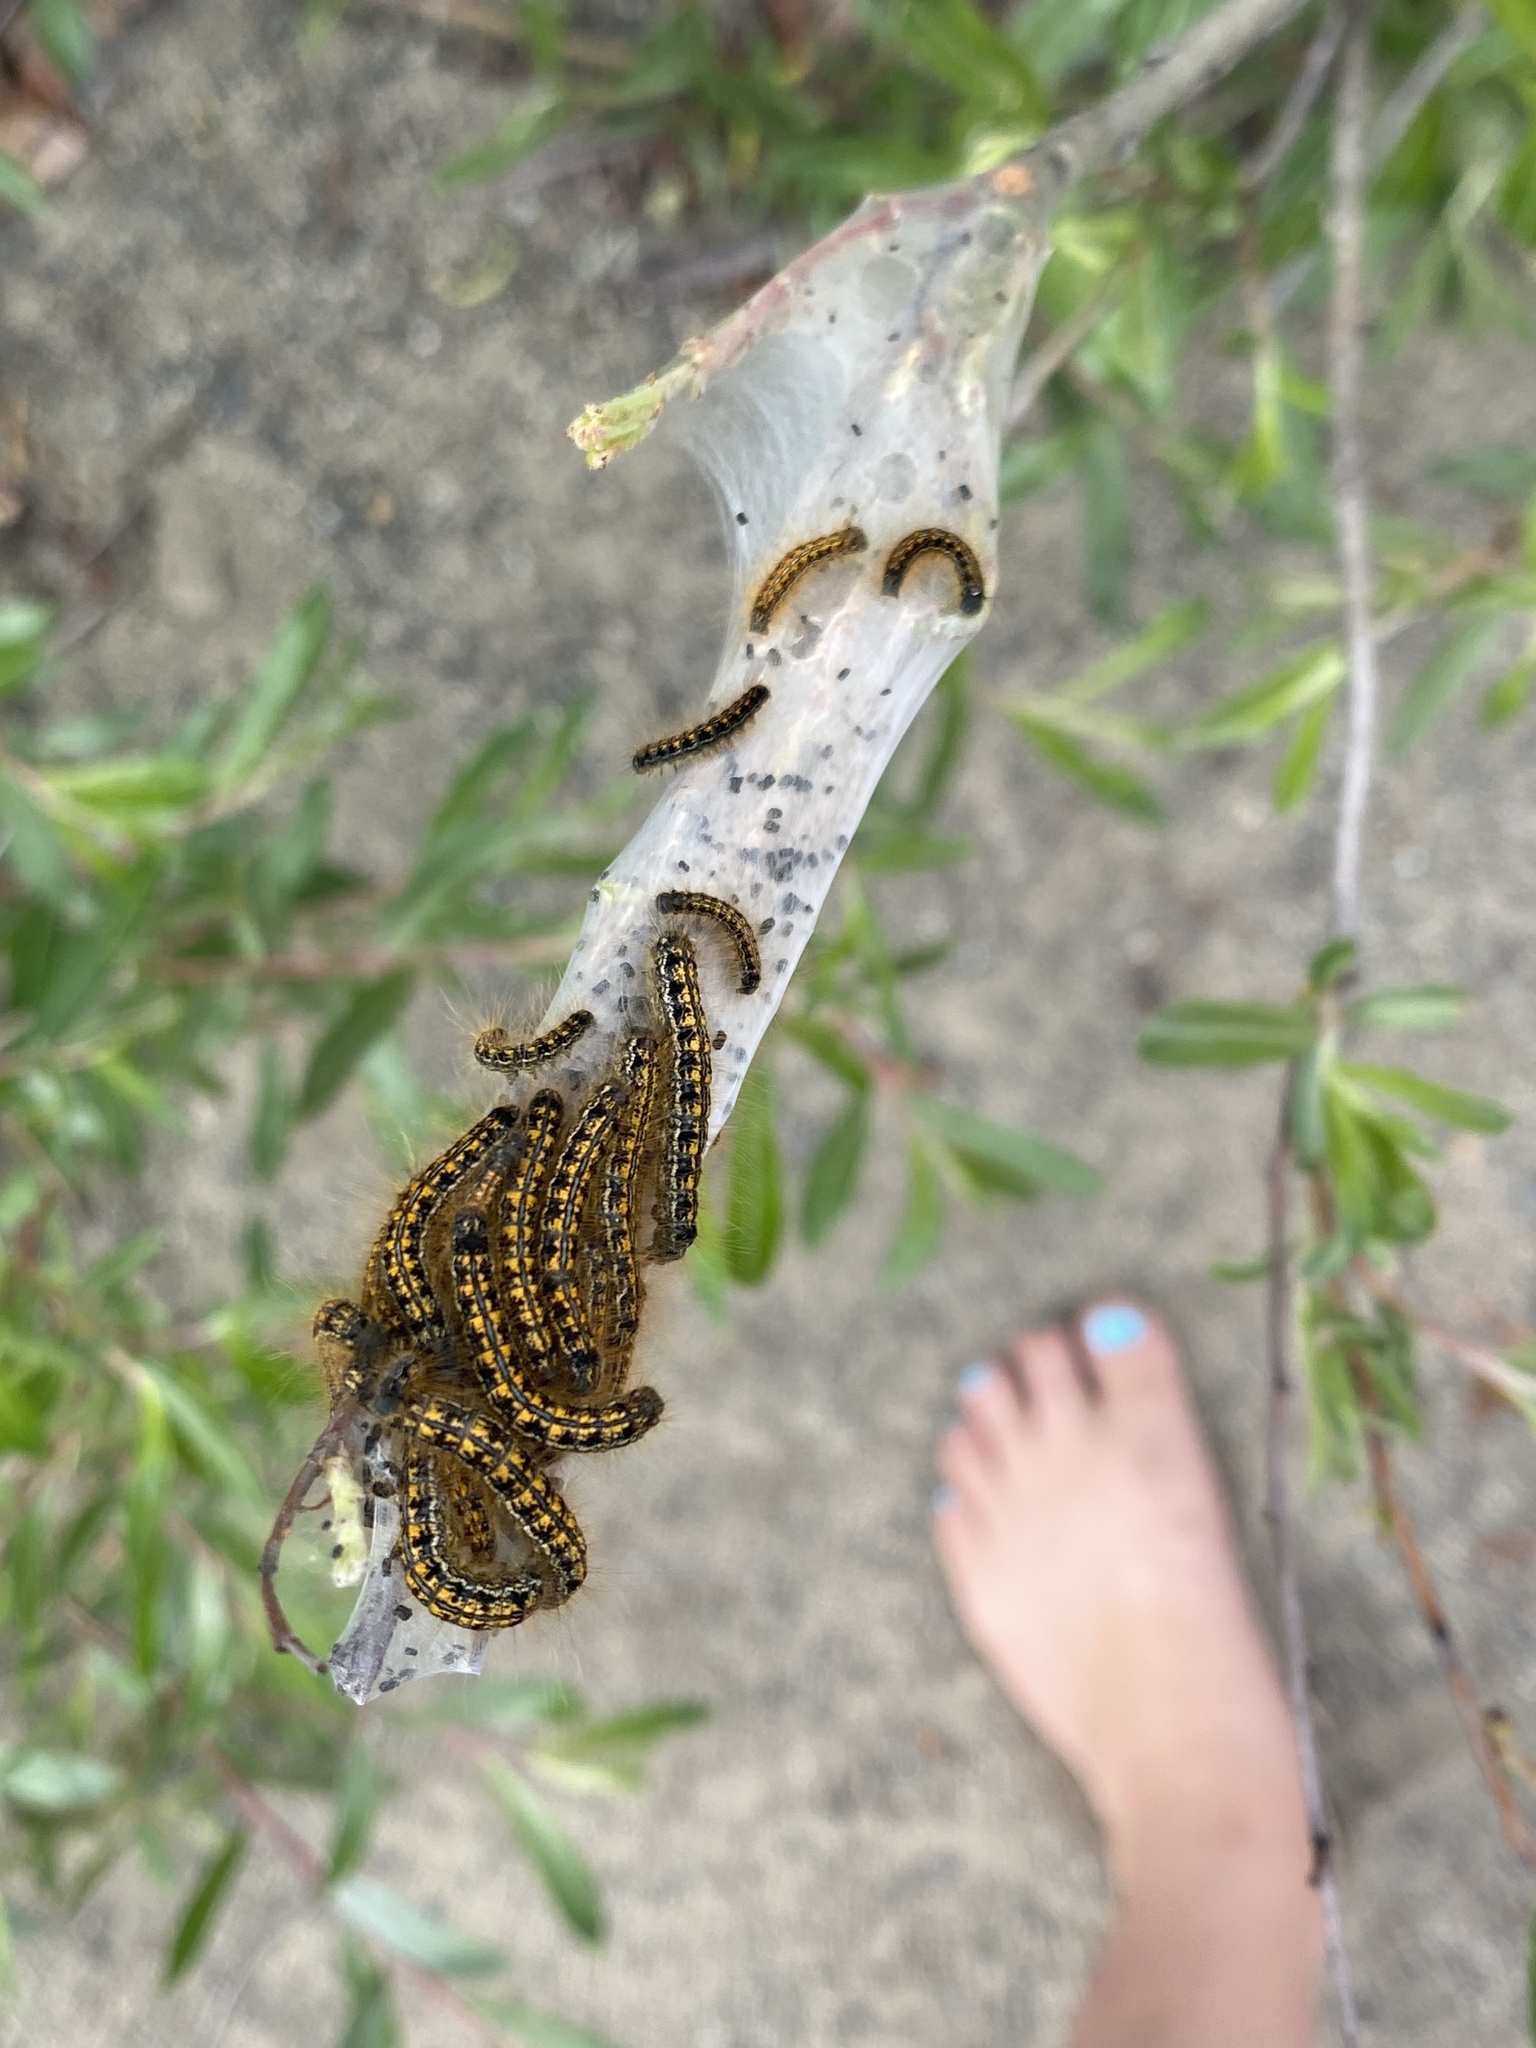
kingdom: Animalia
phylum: Arthropoda
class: Insecta
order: Lepidoptera
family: Lasiocampidae
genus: Malacosoma
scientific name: Malacosoma californica
